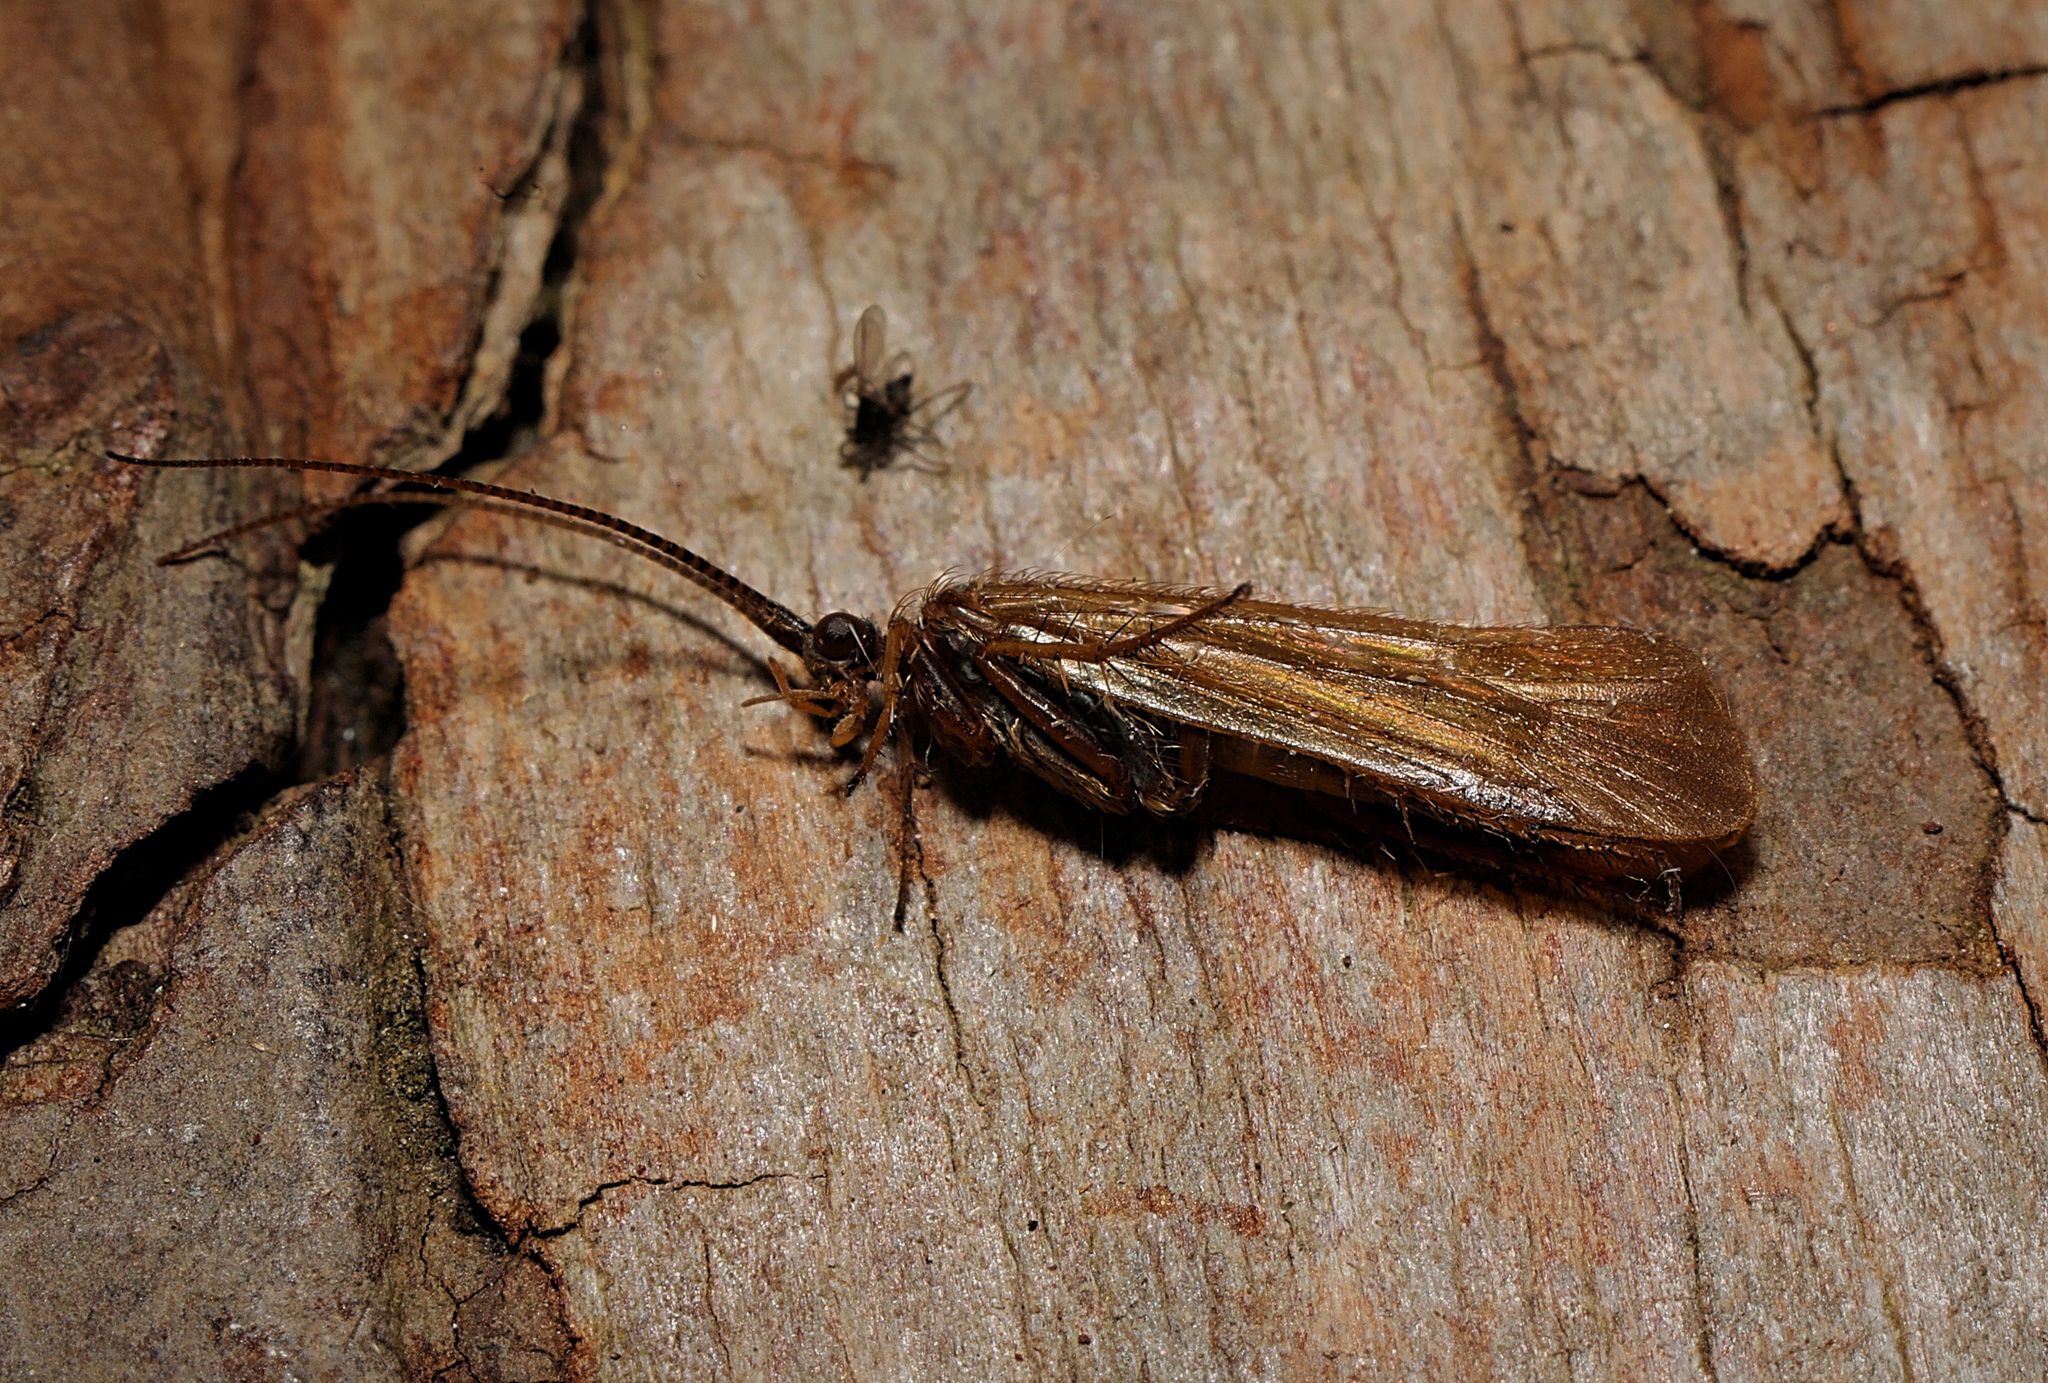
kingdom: Animalia
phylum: Arthropoda
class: Insecta
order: Trichoptera
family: Limnephilidae
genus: Limnephilus
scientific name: Limnephilus auricula
